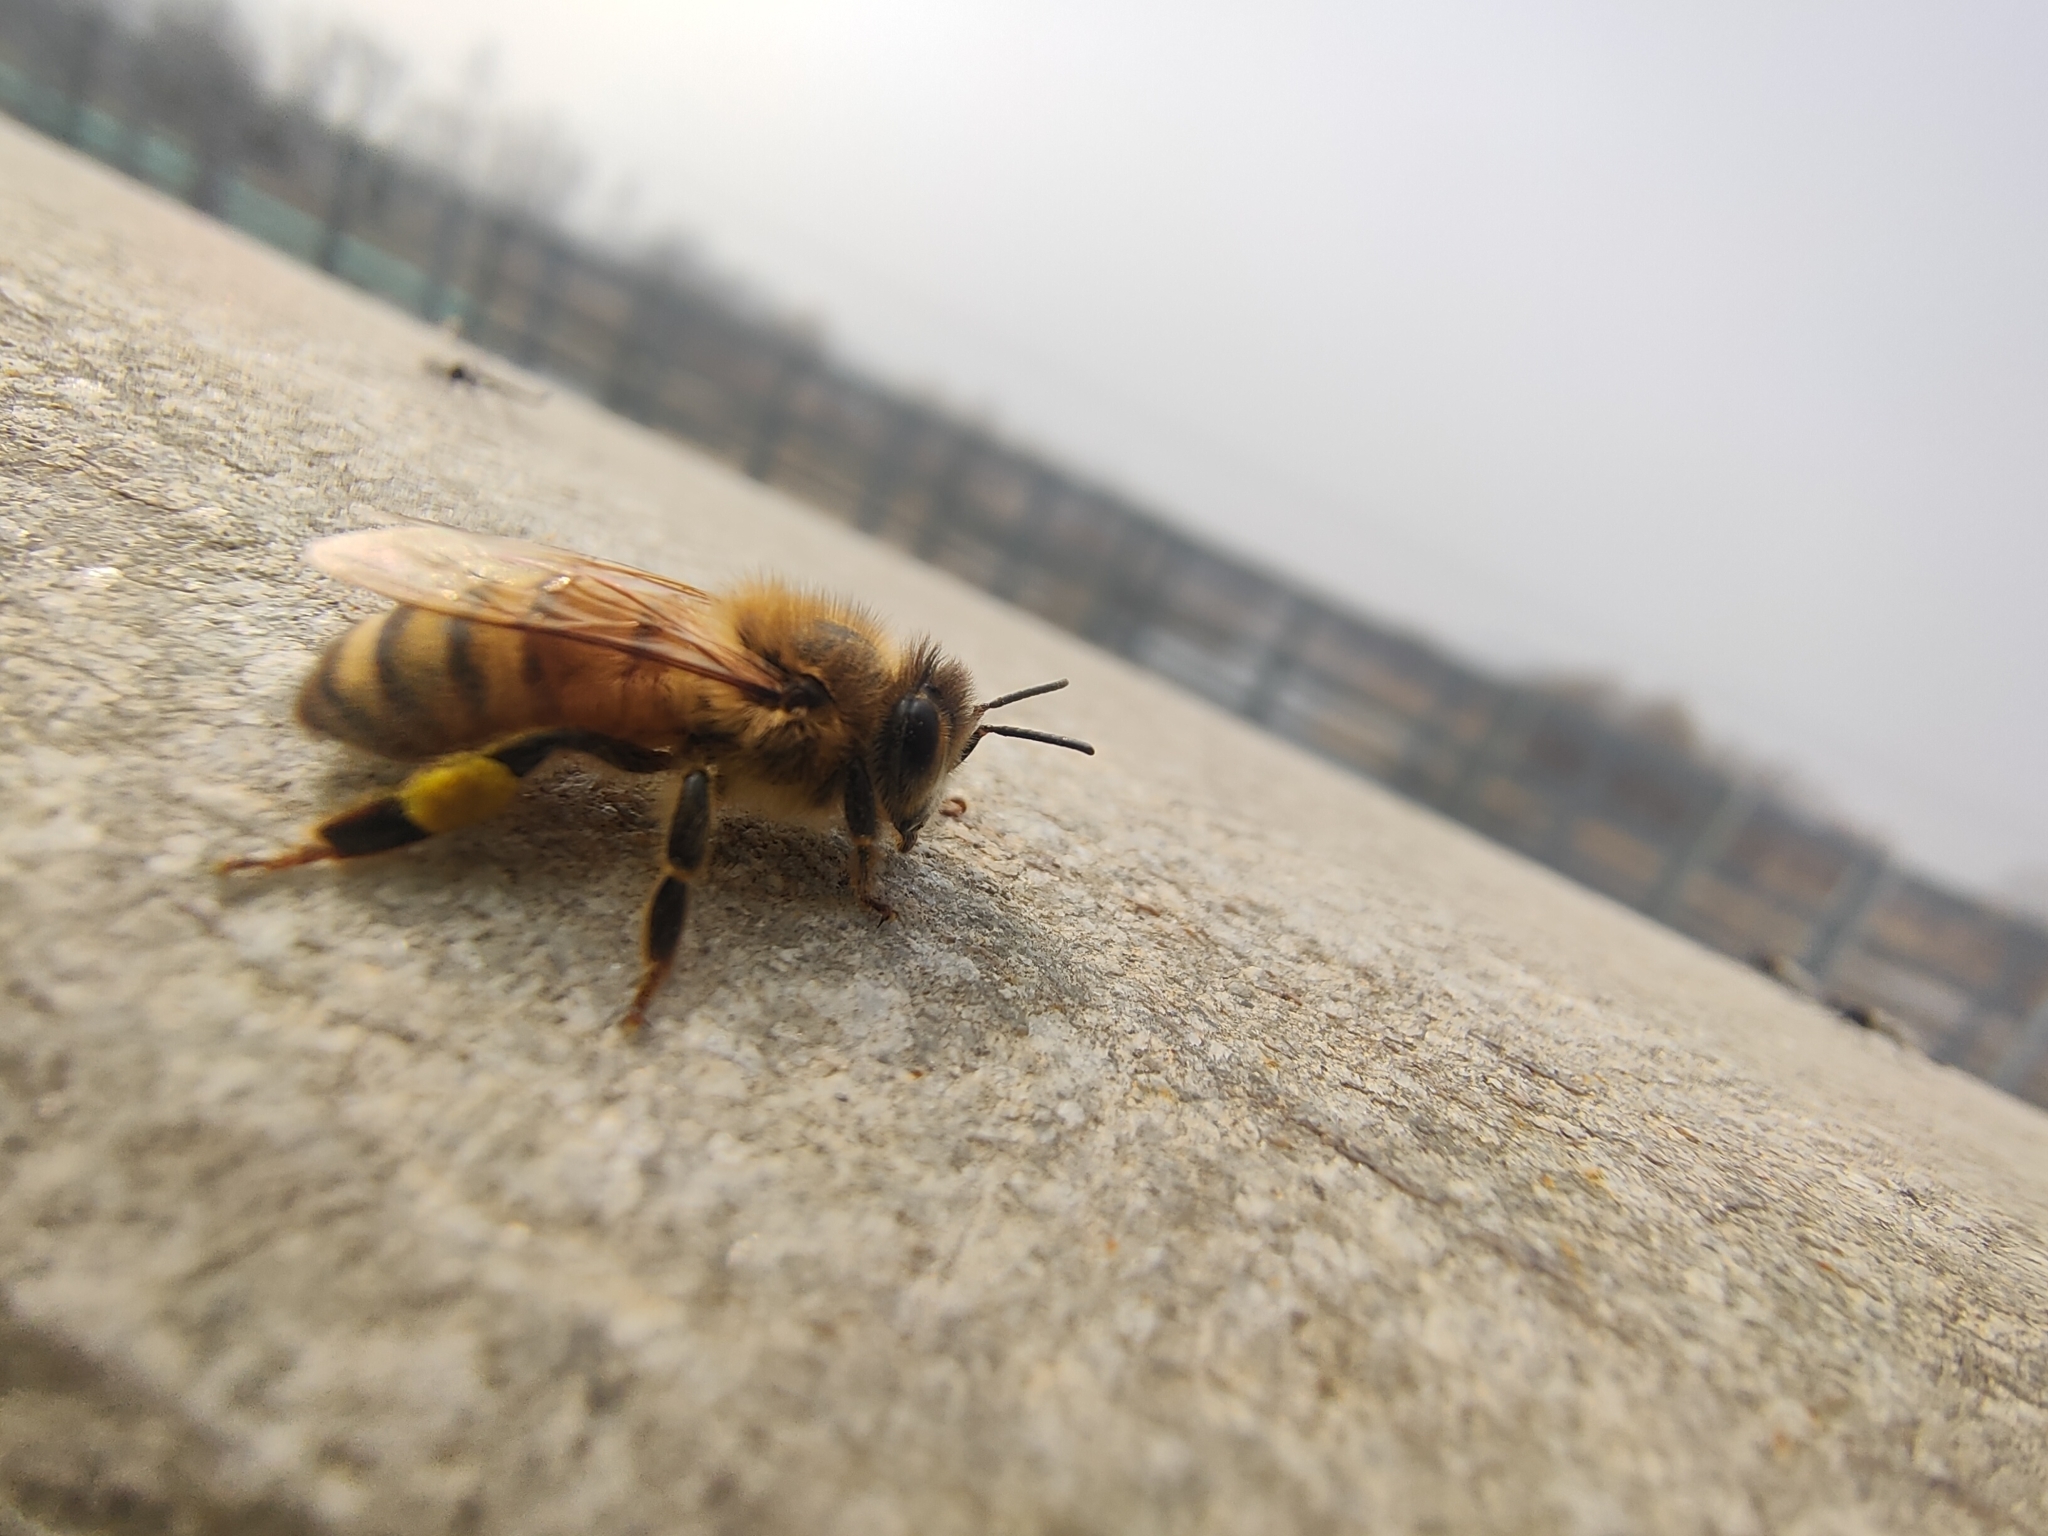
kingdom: Animalia
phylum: Arthropoda
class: Insecta
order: Hymenoptera
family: Apidae
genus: Apis
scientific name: Apis mellifera
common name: Honey bee
